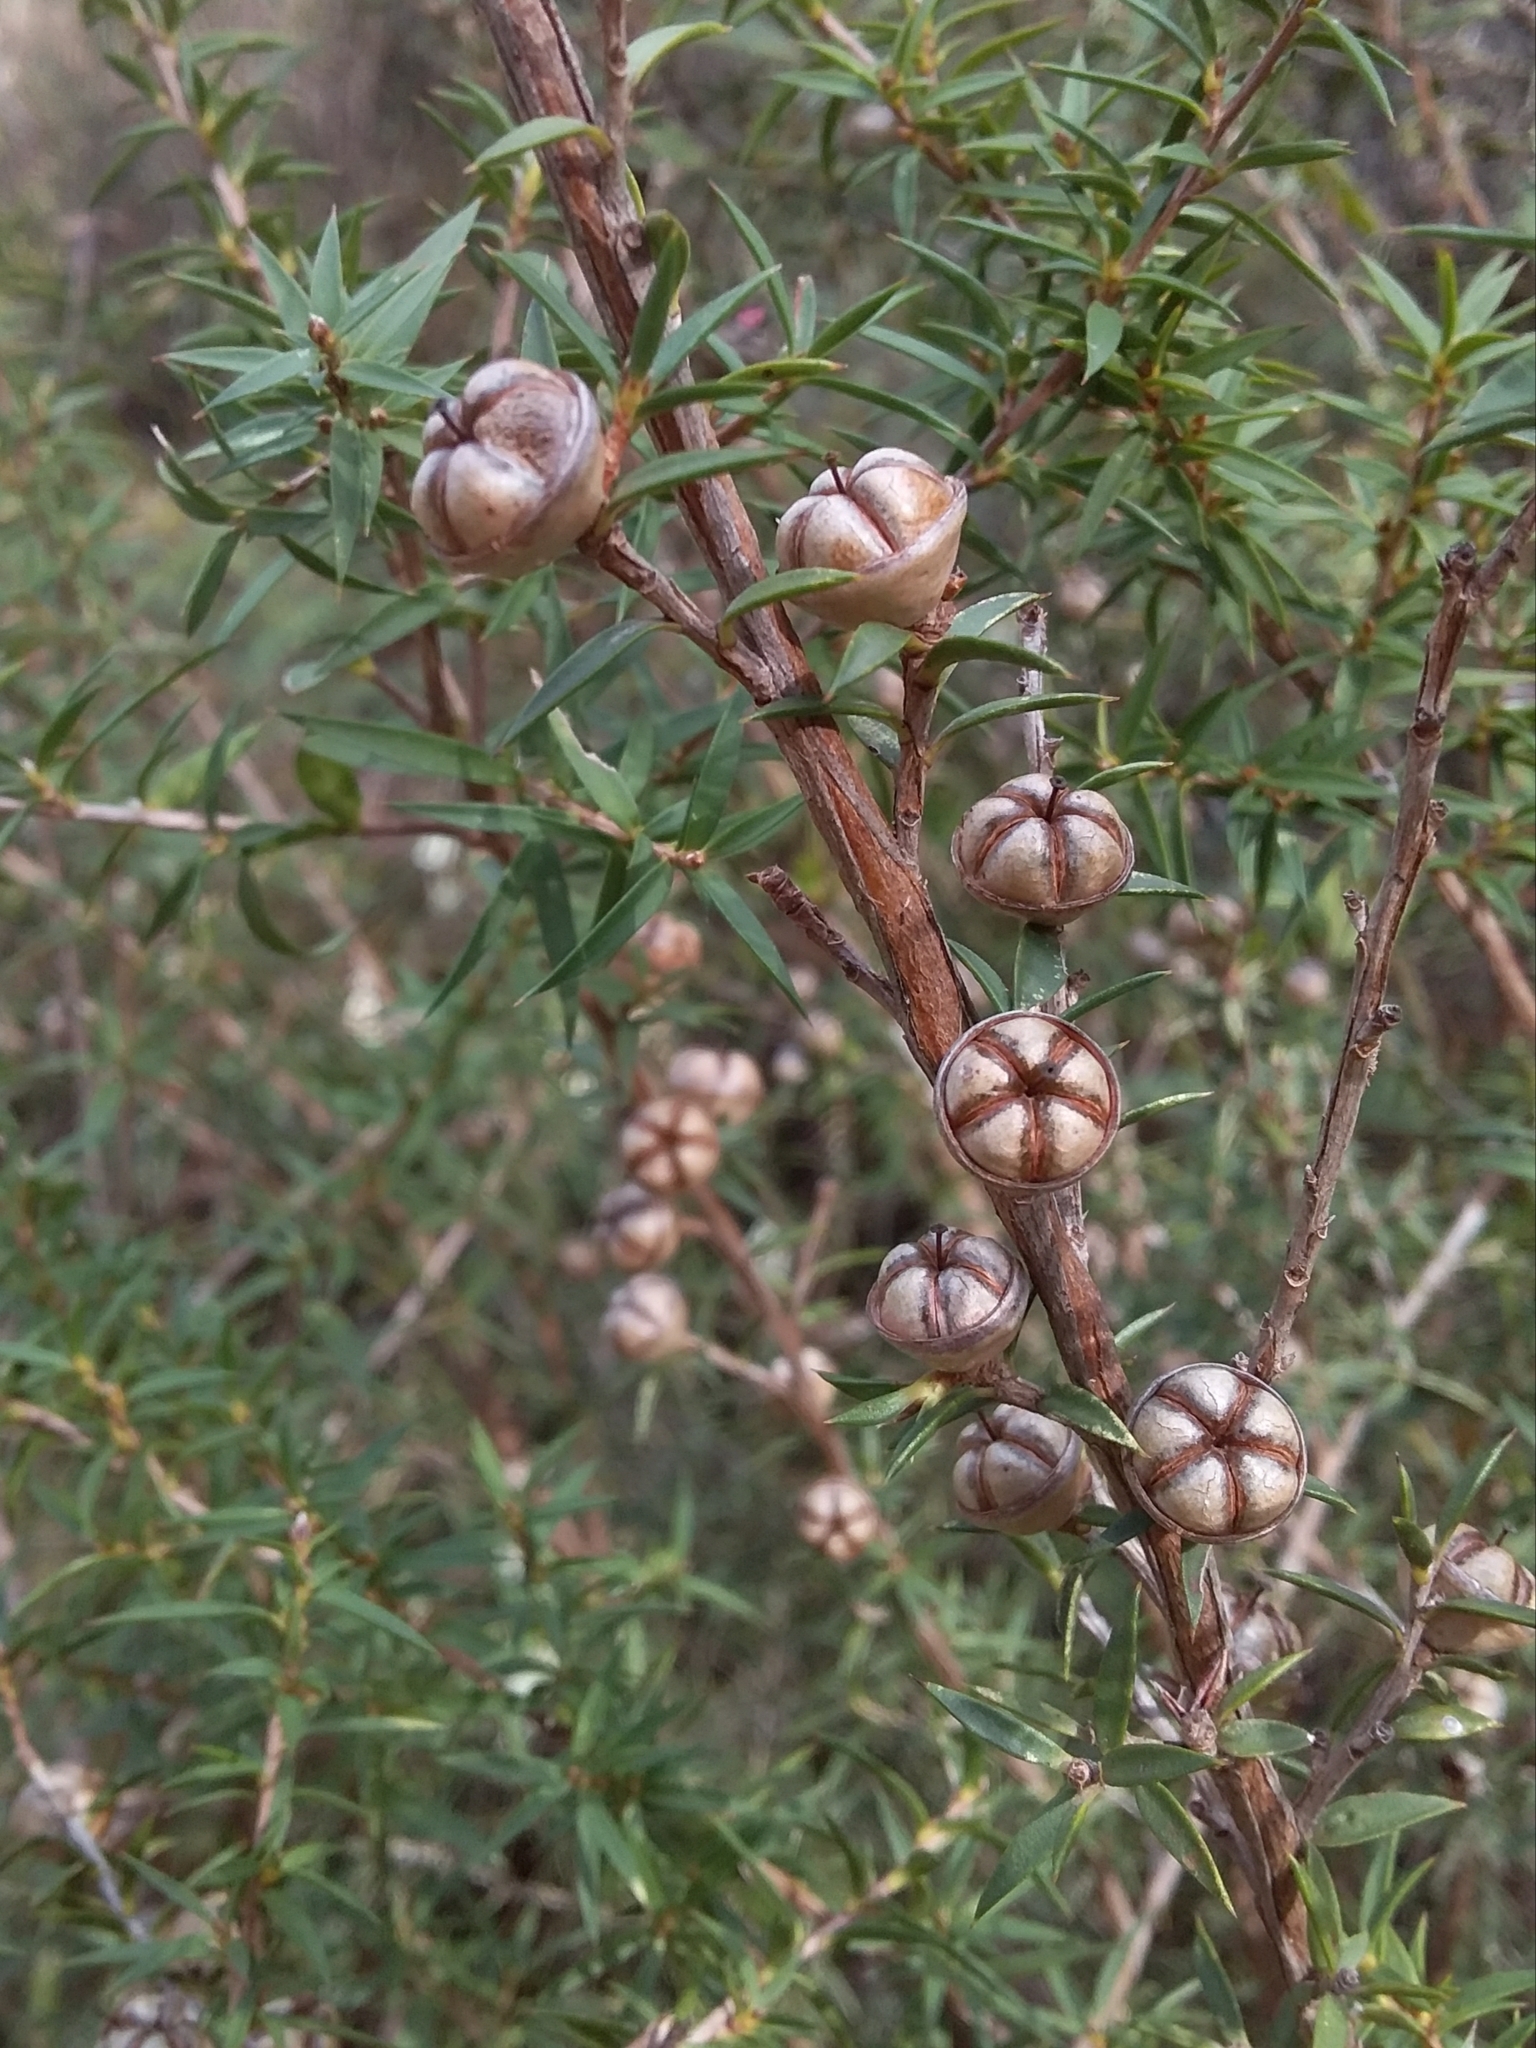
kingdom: Plantae
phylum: Tracheophyta
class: Magnoliopsida
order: Myrtales
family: Myrtaceae
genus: Leptospermum
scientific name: Leptospermum continentale
